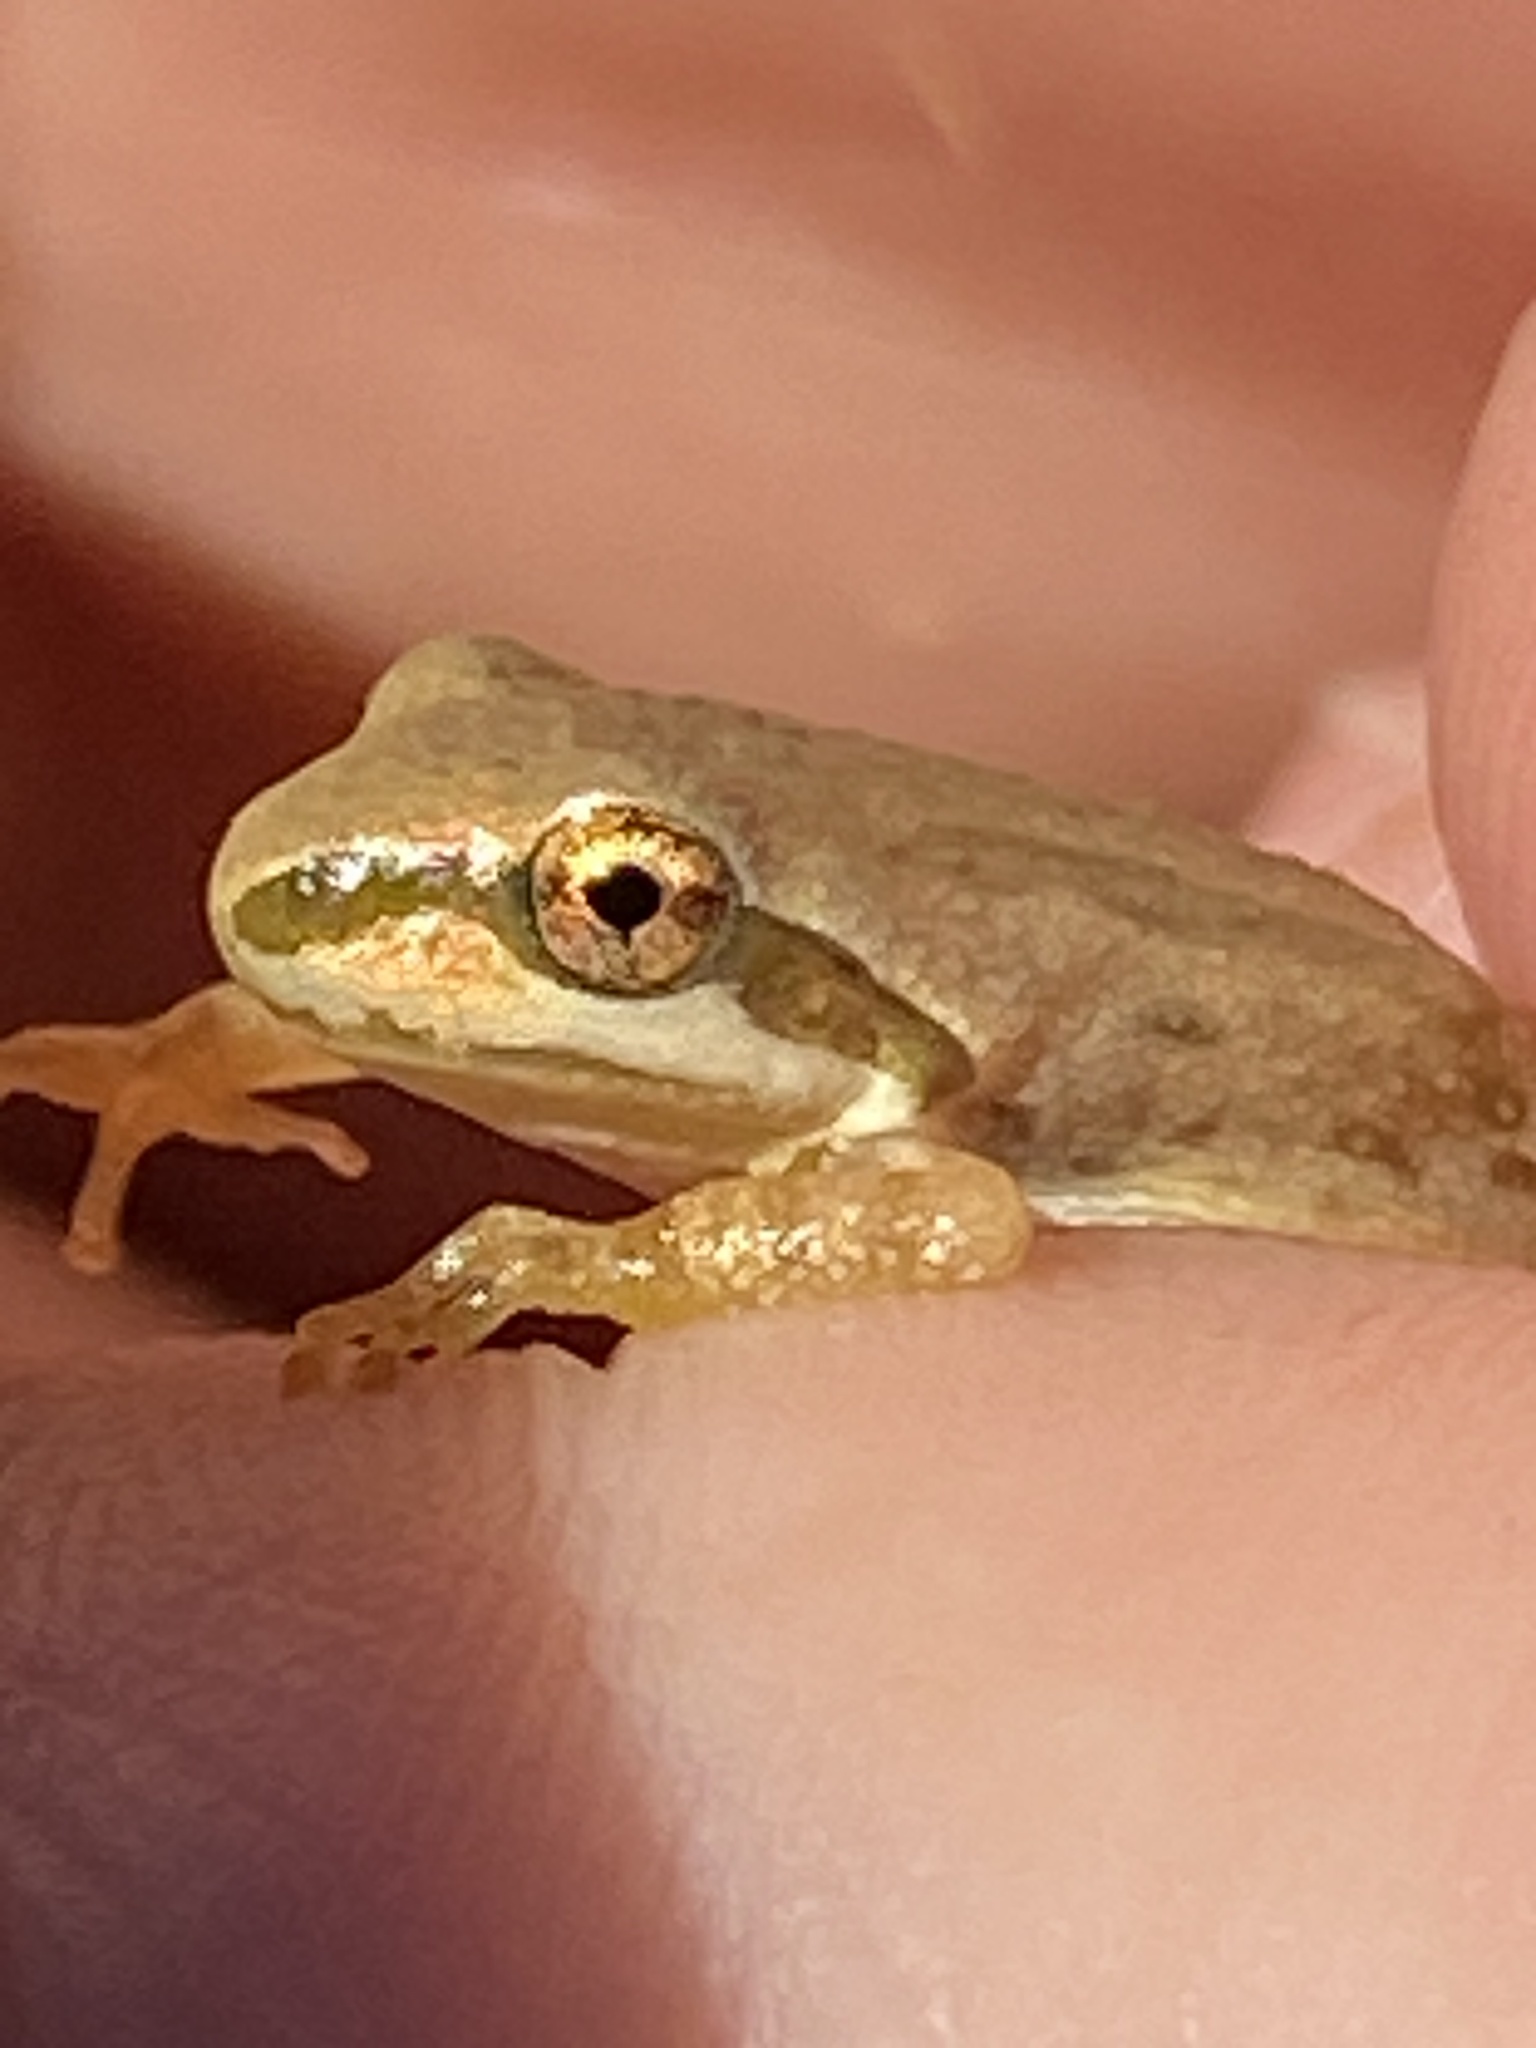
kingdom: Animalia
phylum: Chordata
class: Amphibia
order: Anura
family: Hylidae
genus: Pseudacris
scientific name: Pseudacris regilla
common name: Pacific chorus frog
